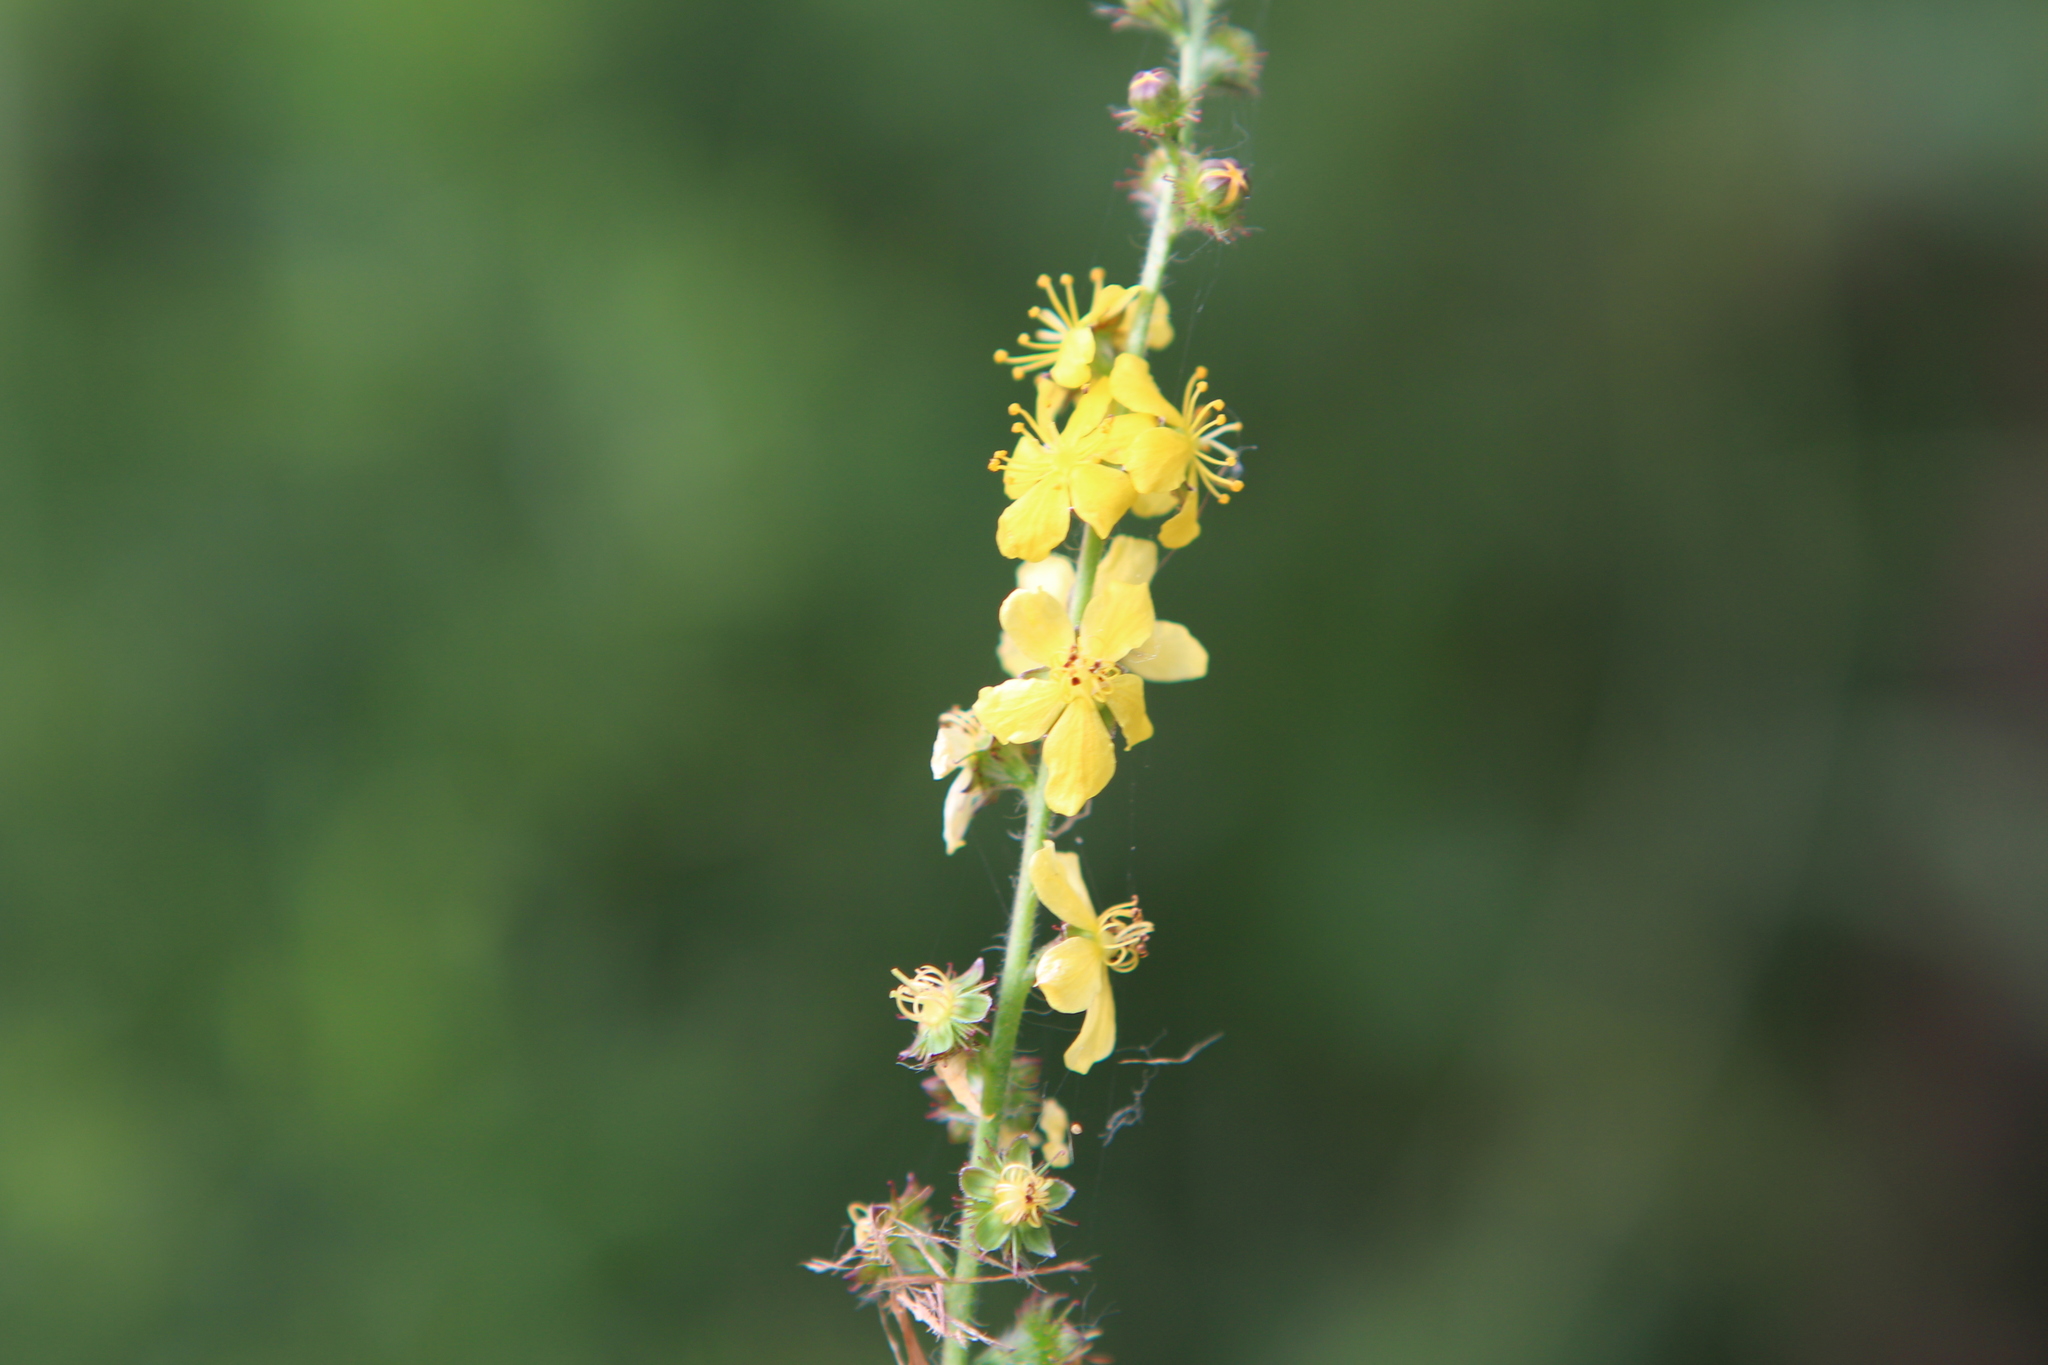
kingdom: Plantae
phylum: Tracheophyta
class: Magnoliopsida
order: Rosales
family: Rosaceae
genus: Agrimonia
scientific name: Agrimonia eupatoria
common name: Agrimony
